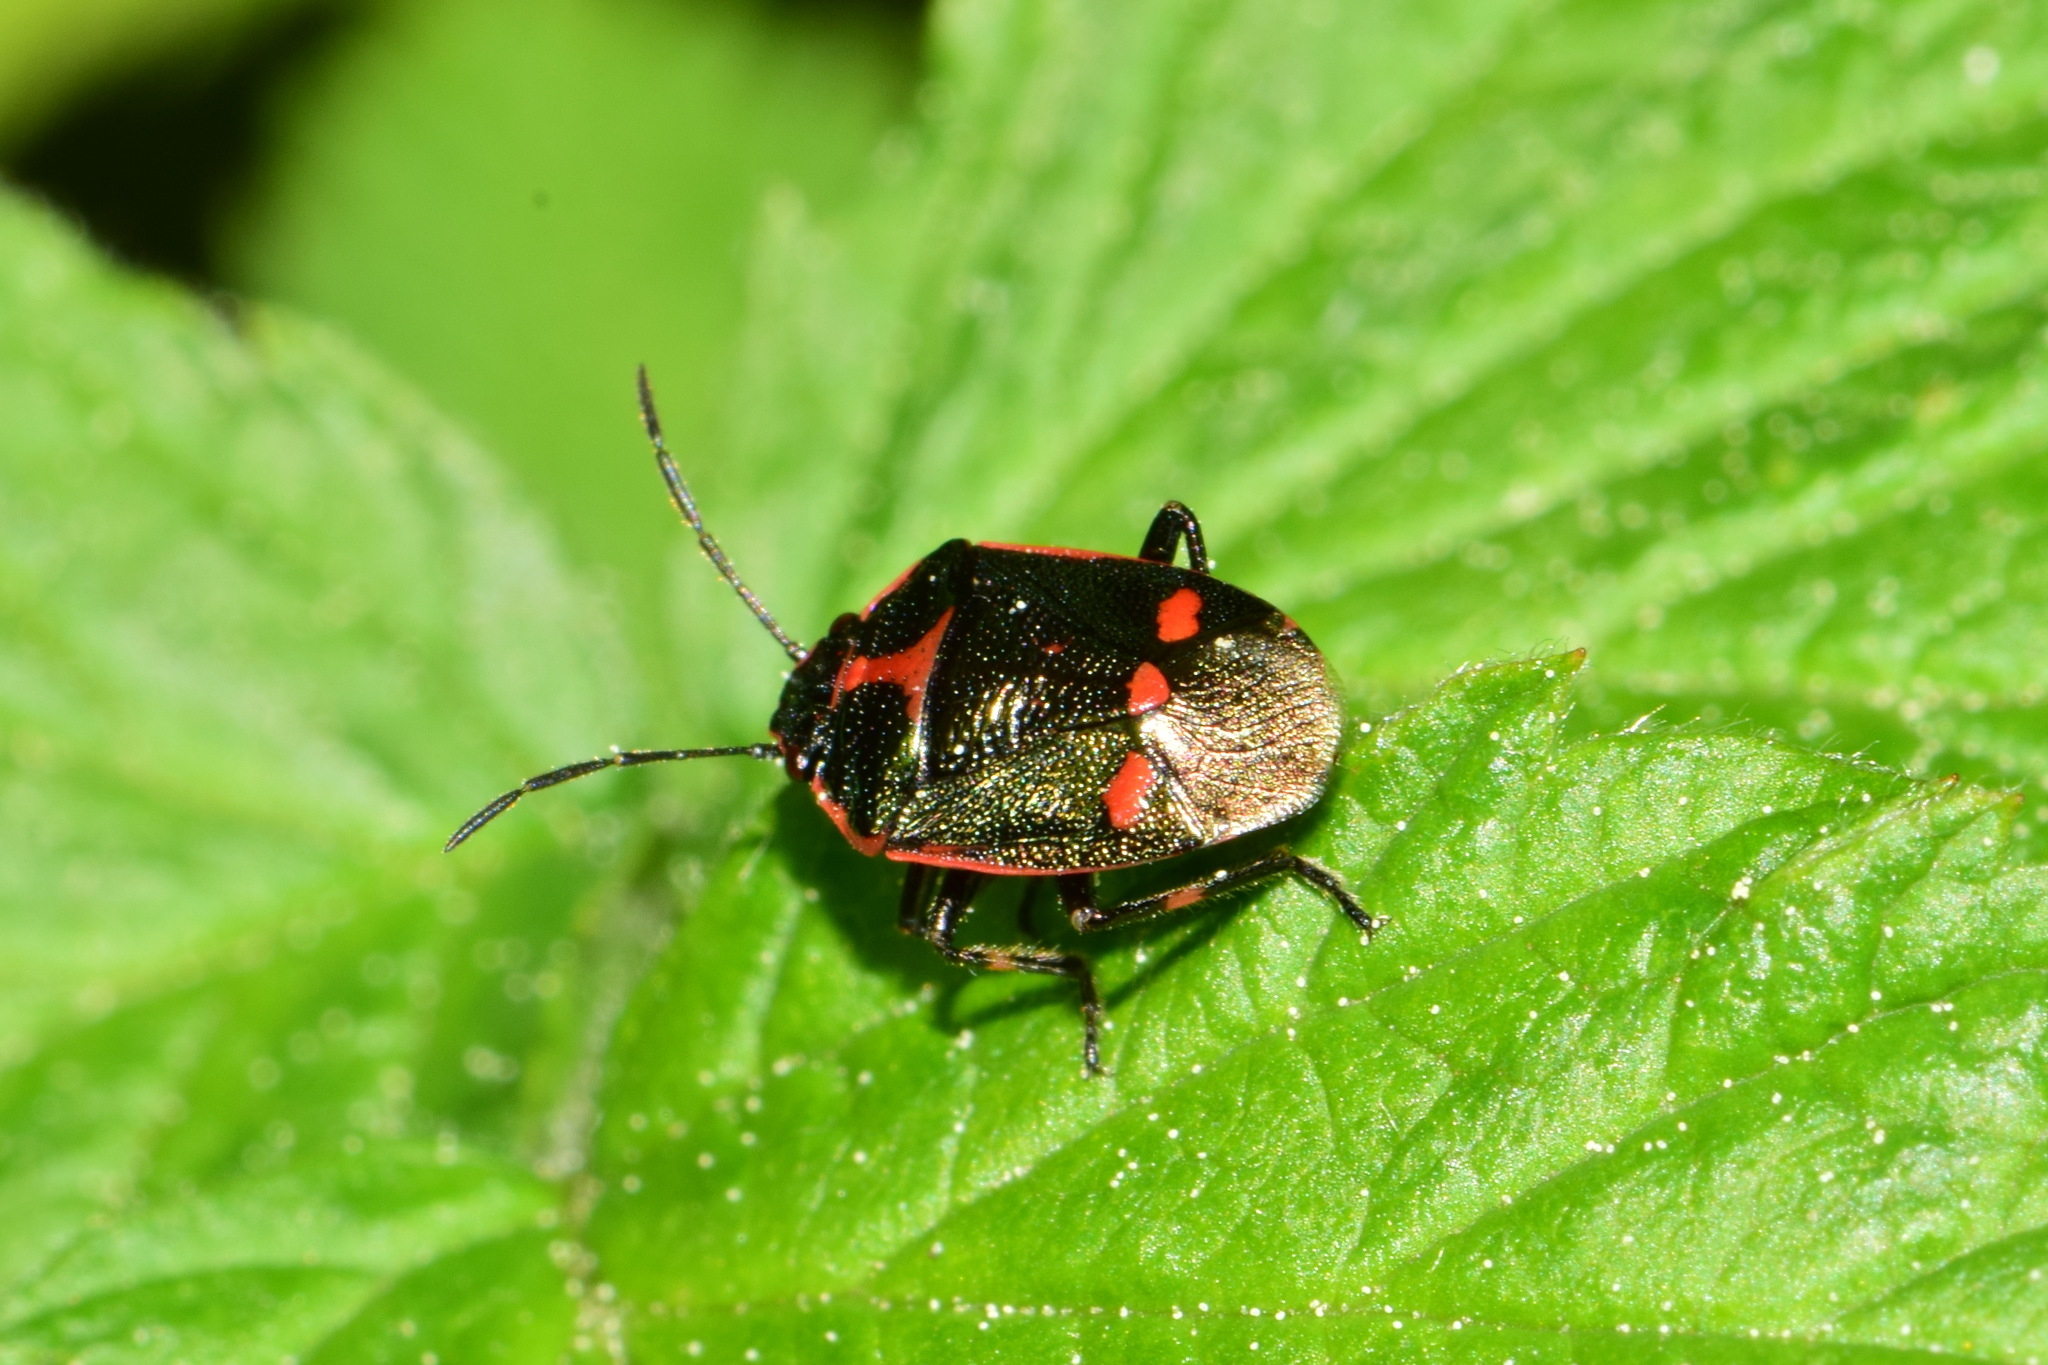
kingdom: Animalia
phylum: Arthropoda
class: Insecta
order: Hemiptera
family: Pentatomidae
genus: Eurydema
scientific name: Eurydema oleracea
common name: Cabbage bug
